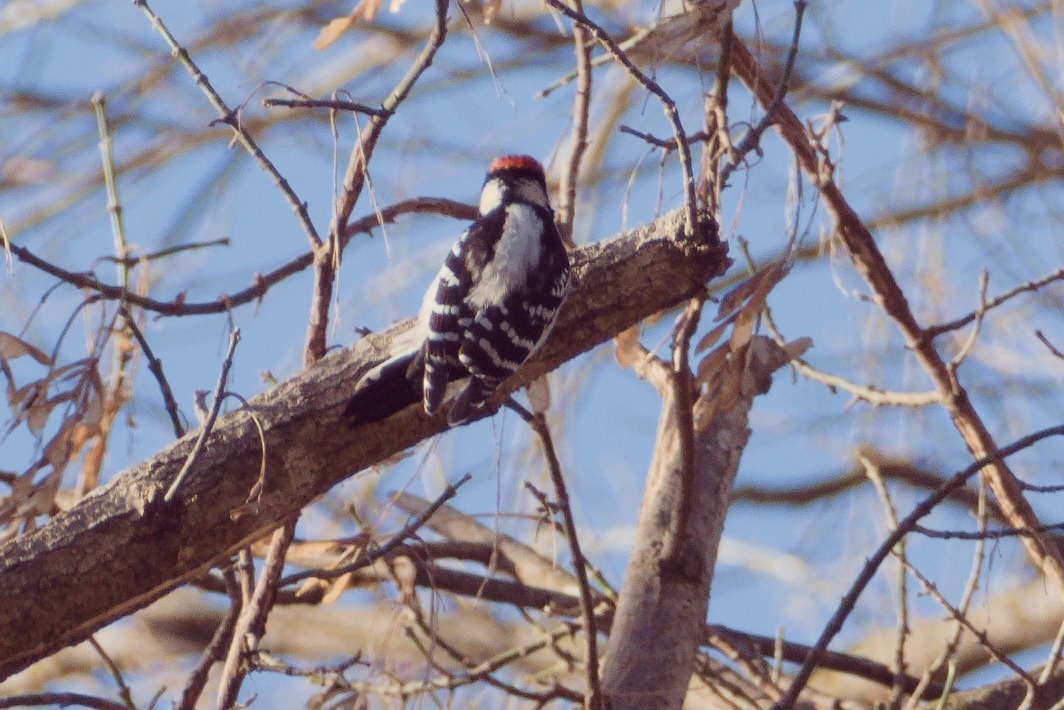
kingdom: Animalia
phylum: Chordata
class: Aves
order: Piciformes
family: Picidae
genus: Dryobates
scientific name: Dryobates pubescens
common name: Downy woodpecker
